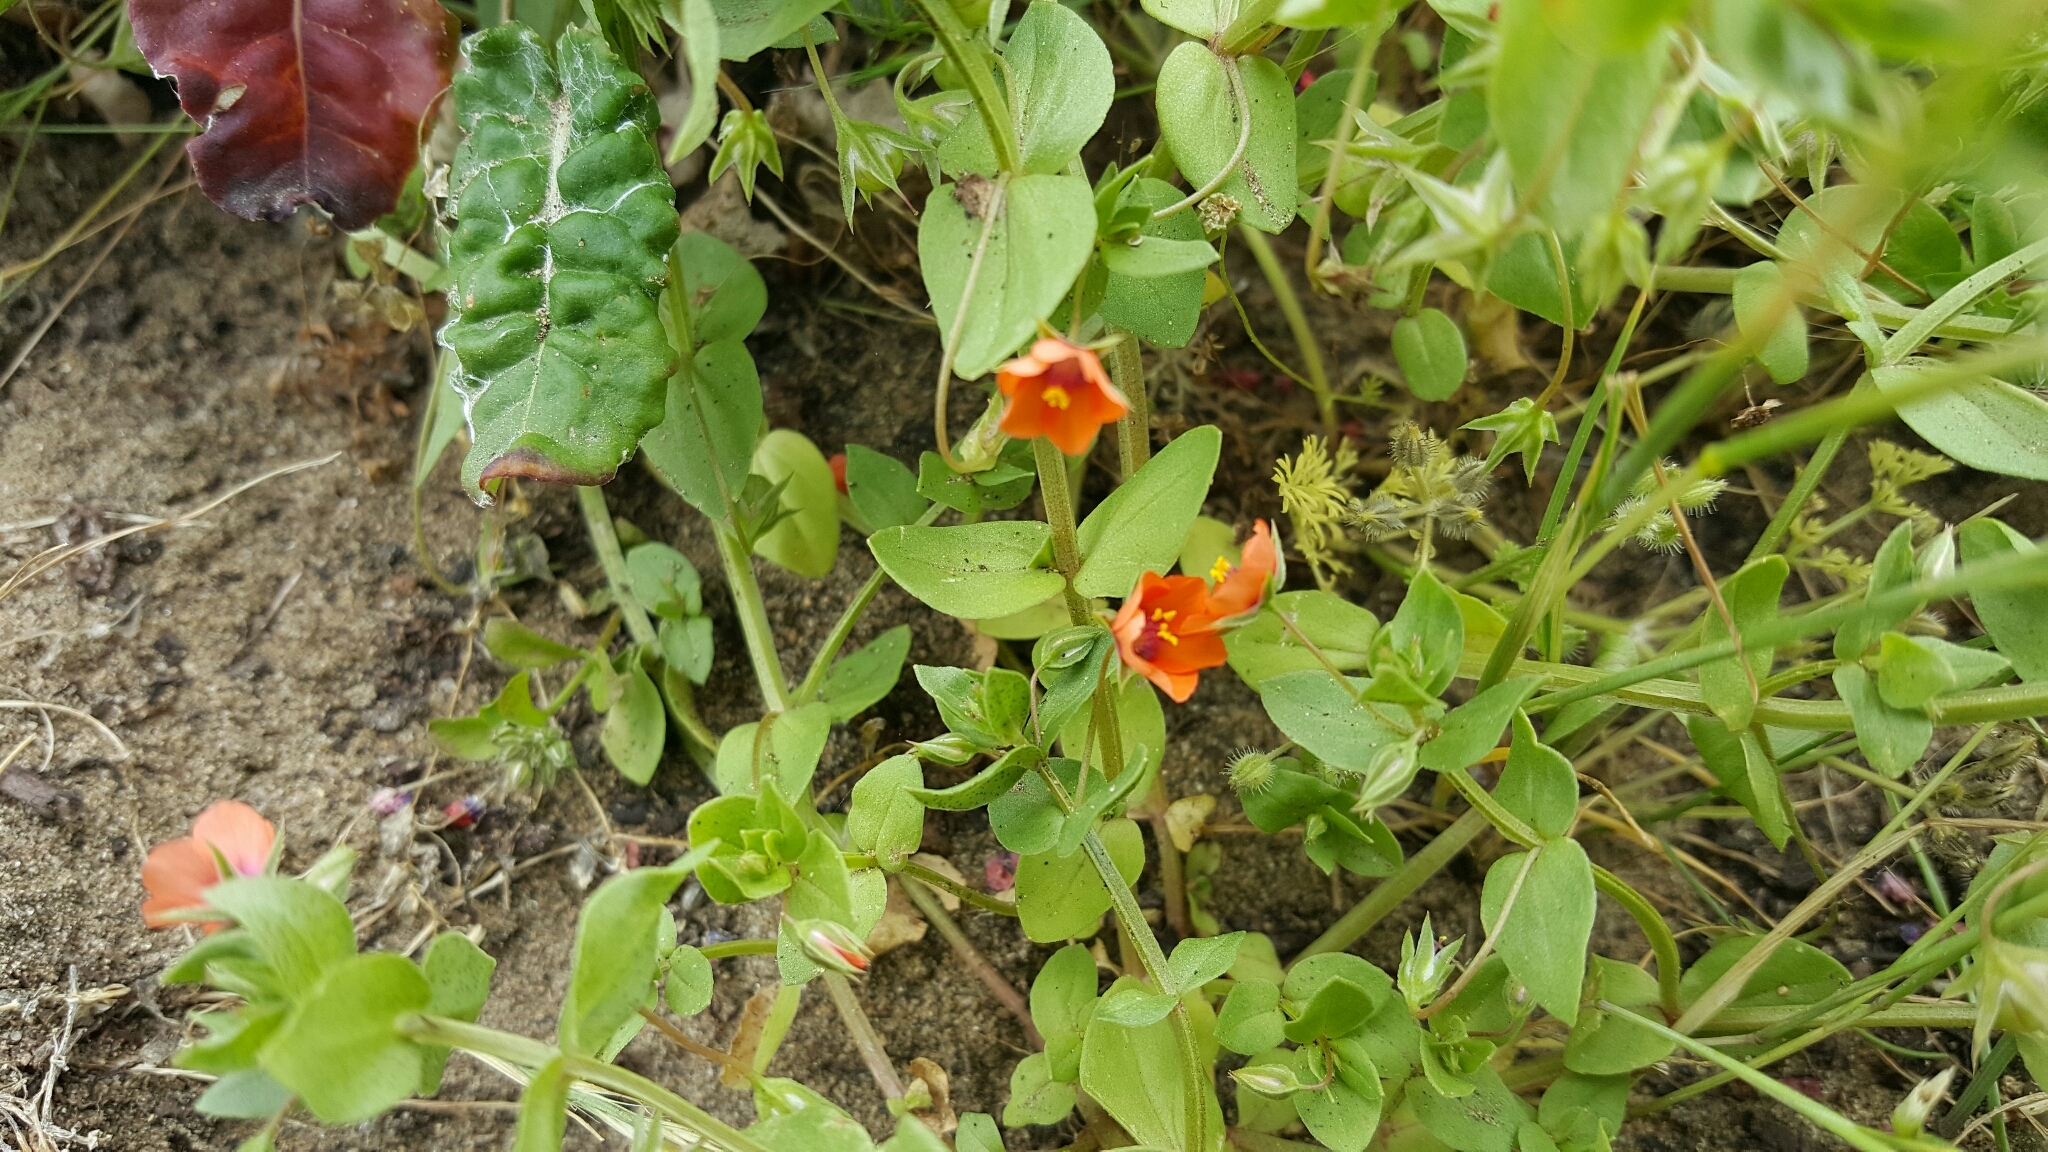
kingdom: Plantae
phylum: Tracheophyta
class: Magnoliopsida
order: Ericales
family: Primulaceae
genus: Lysimachia
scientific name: Lysimachia arvensis
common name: Scarlet pimpernel
